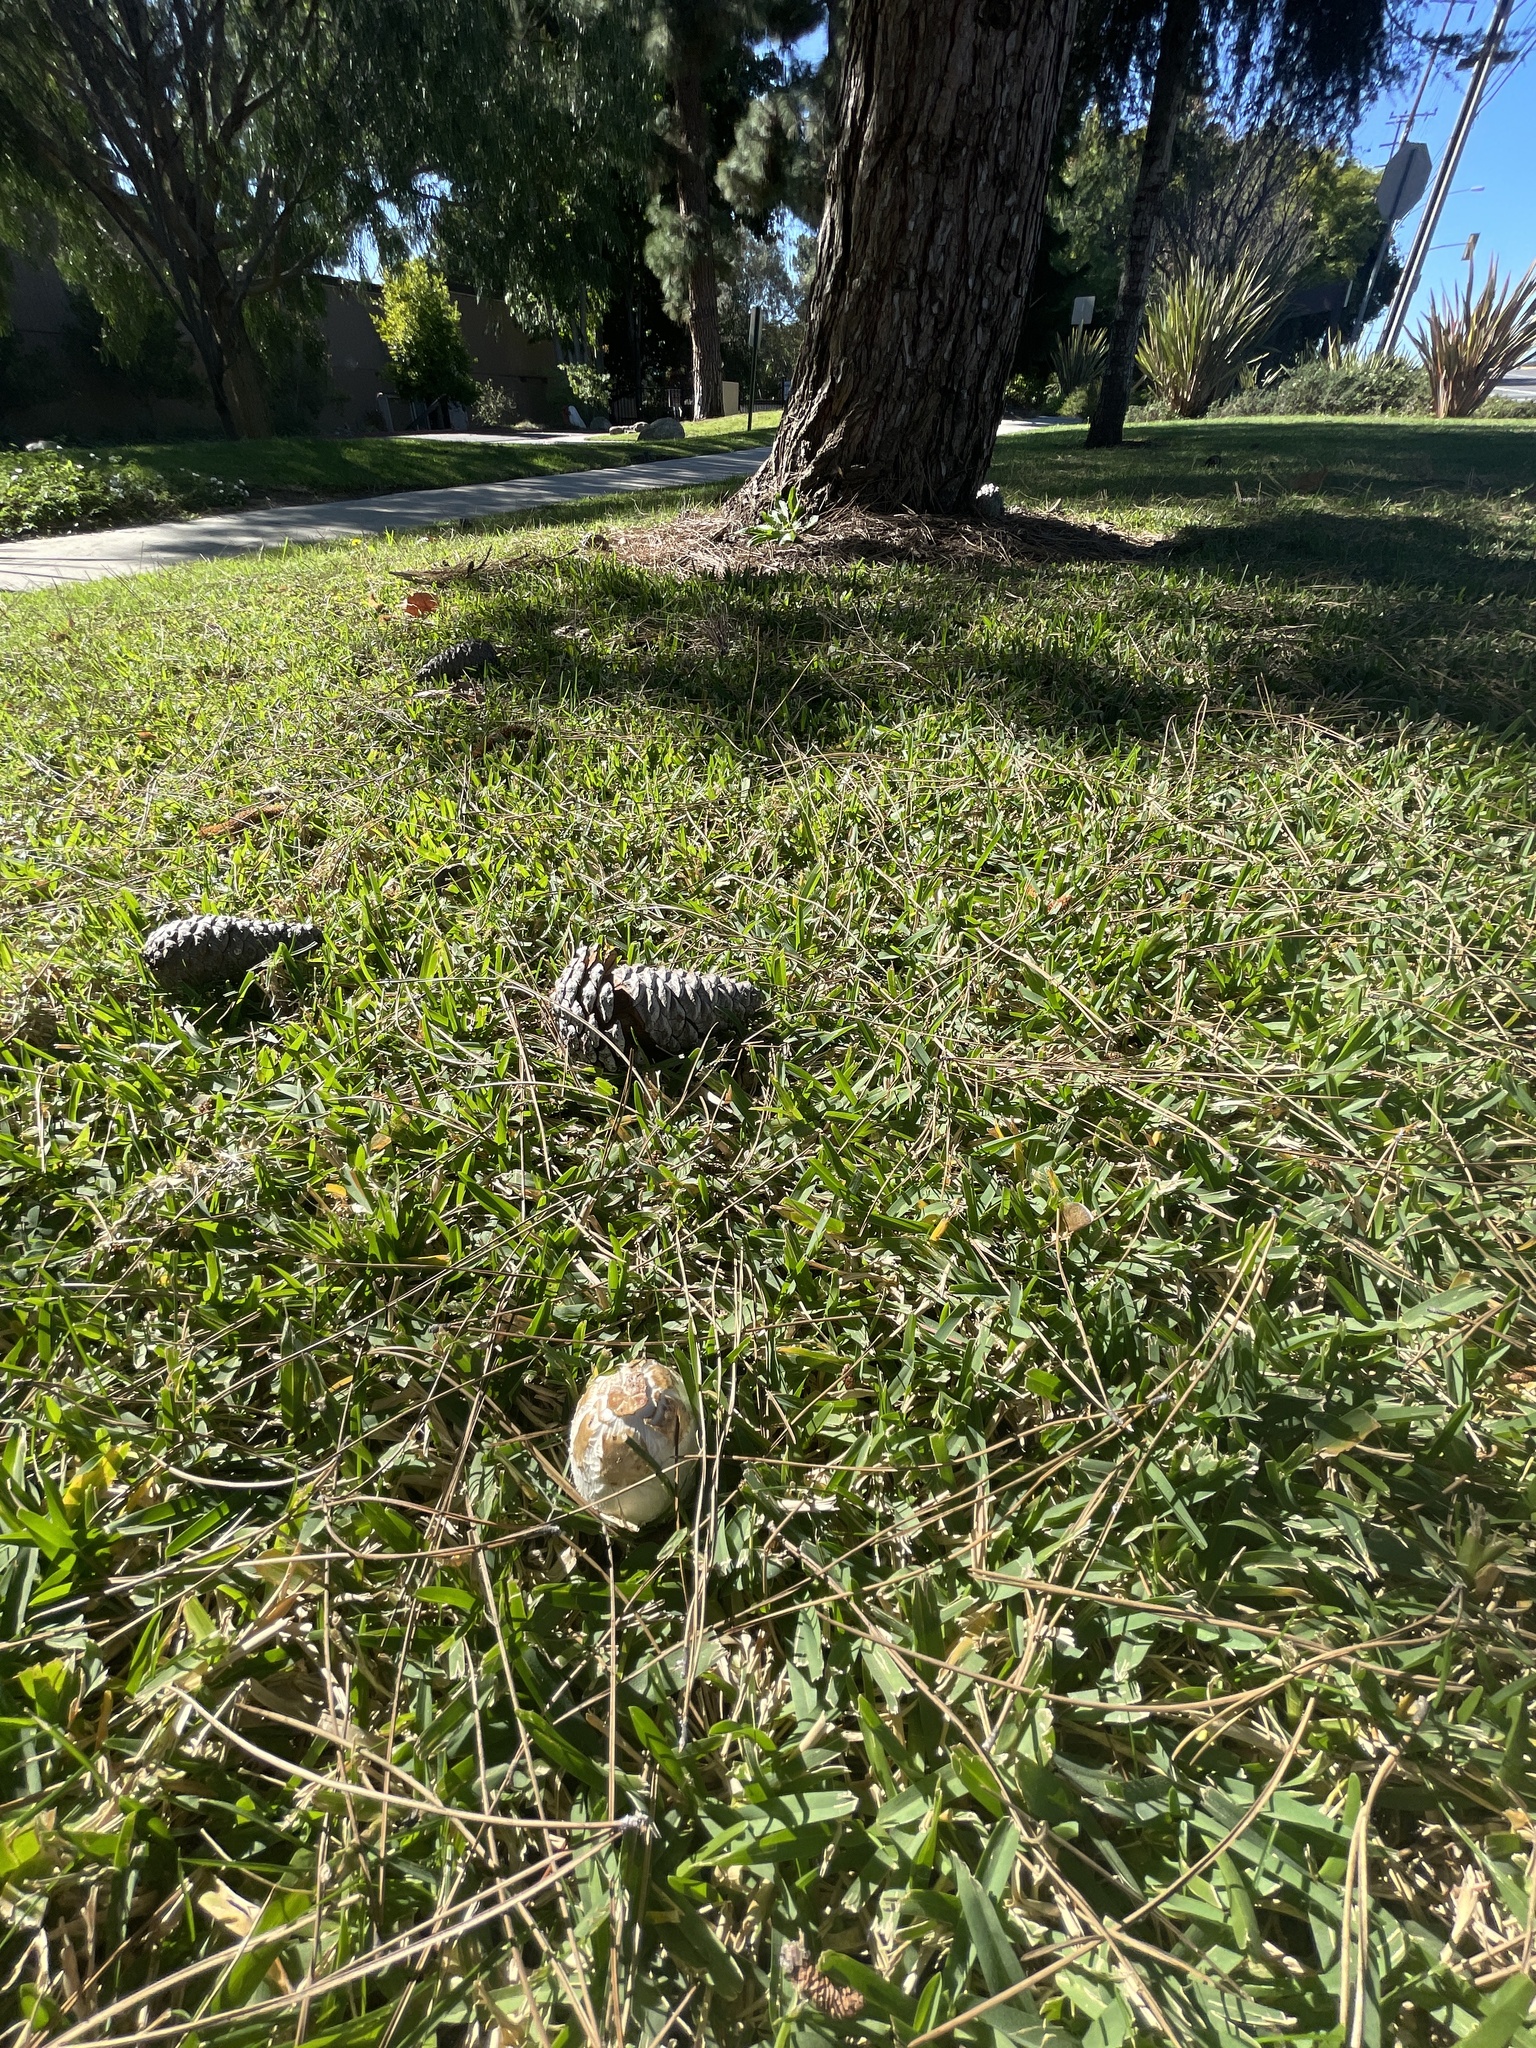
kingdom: Fungi
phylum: Basidiomycota
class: Agaricomycetes
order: Agaricales
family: Agaricaceae
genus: Chlorophyllum
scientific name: Chlorophyllum molybdites
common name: False parasol
